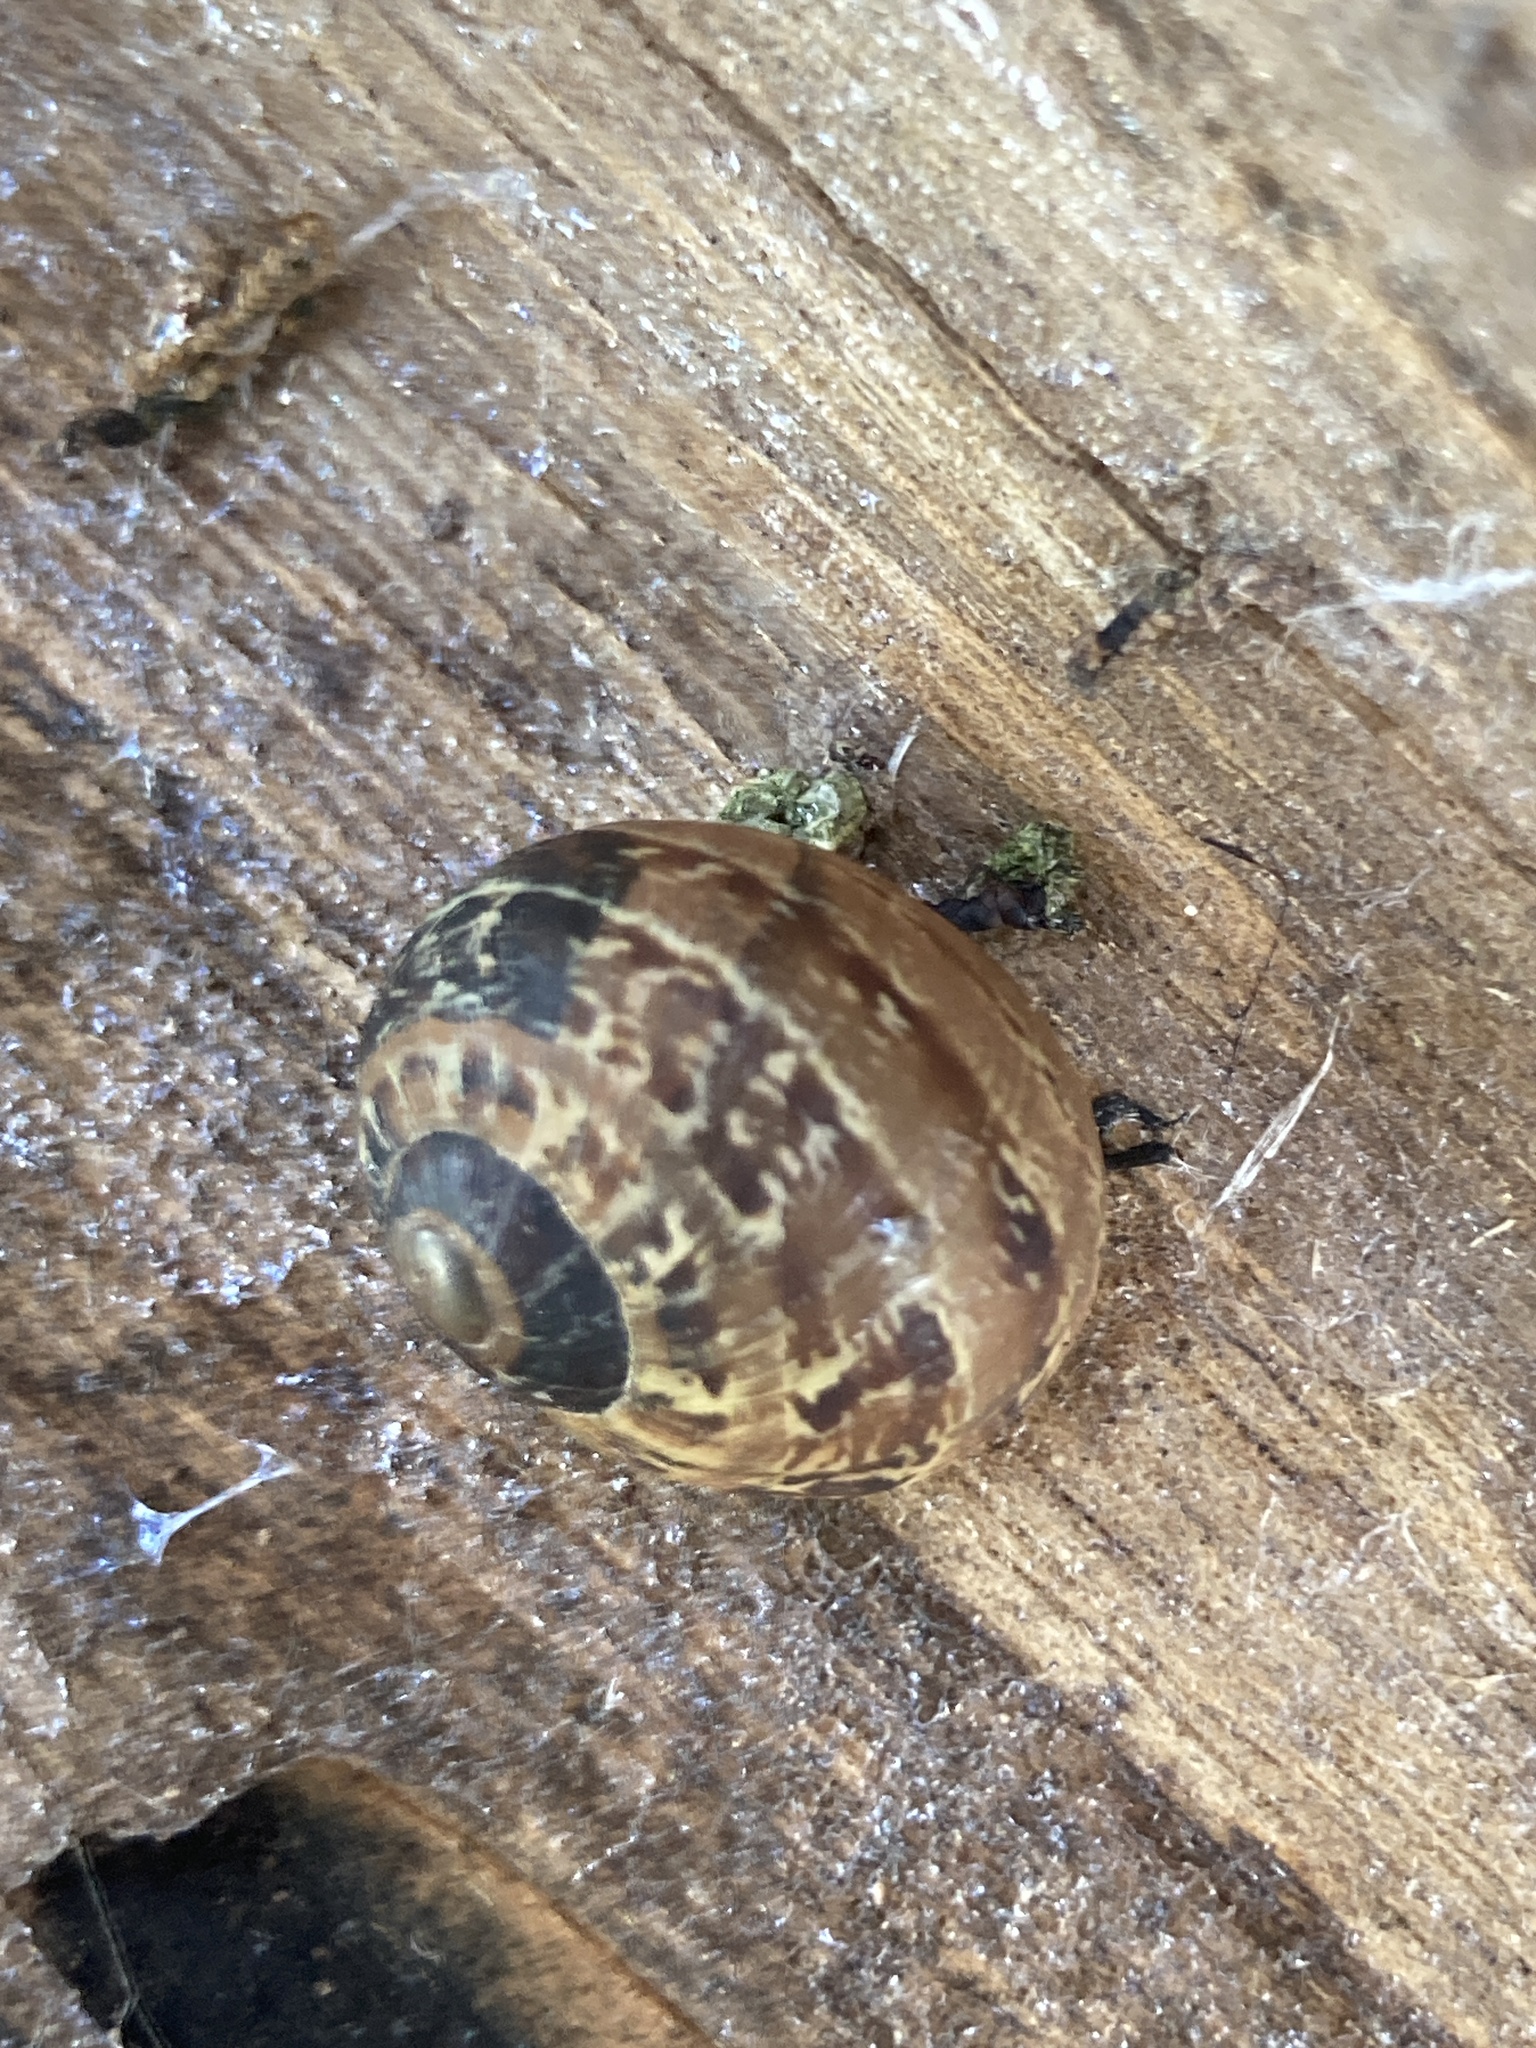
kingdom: Animalia
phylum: Mollusca
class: Gastropoda
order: Stylommatophora
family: Helicidae
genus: Cornu
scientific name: Cornu aspersum
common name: Brown garden snail
